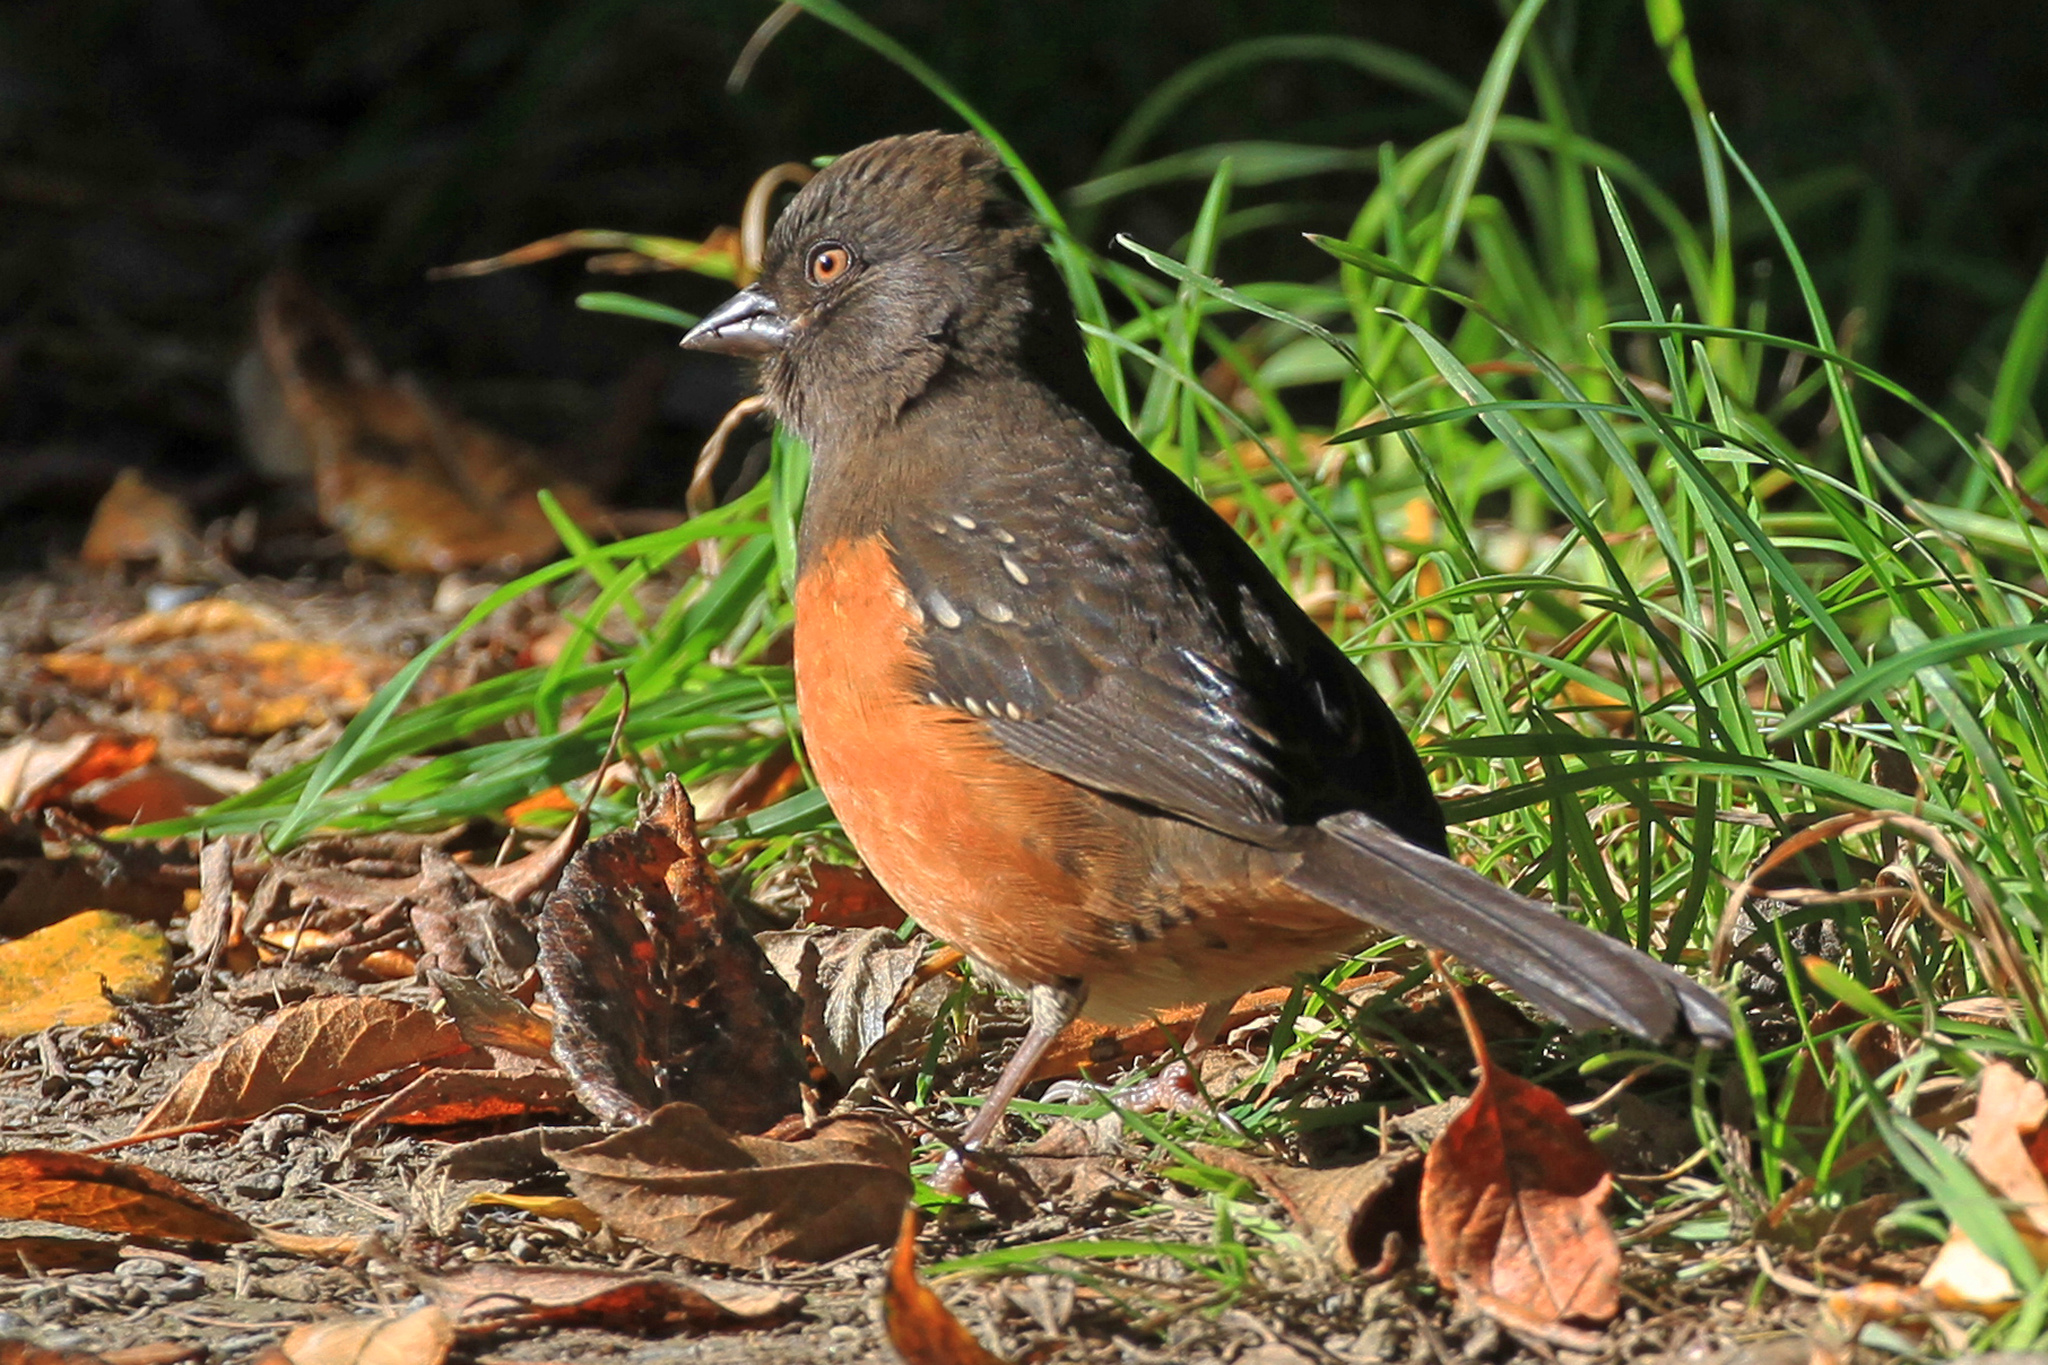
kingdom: Animalia
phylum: Chordata
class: Aves
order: Passeriformes
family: Passerellidae
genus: Pipilo
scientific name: Pipilo maculatus
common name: Spotted towhee
